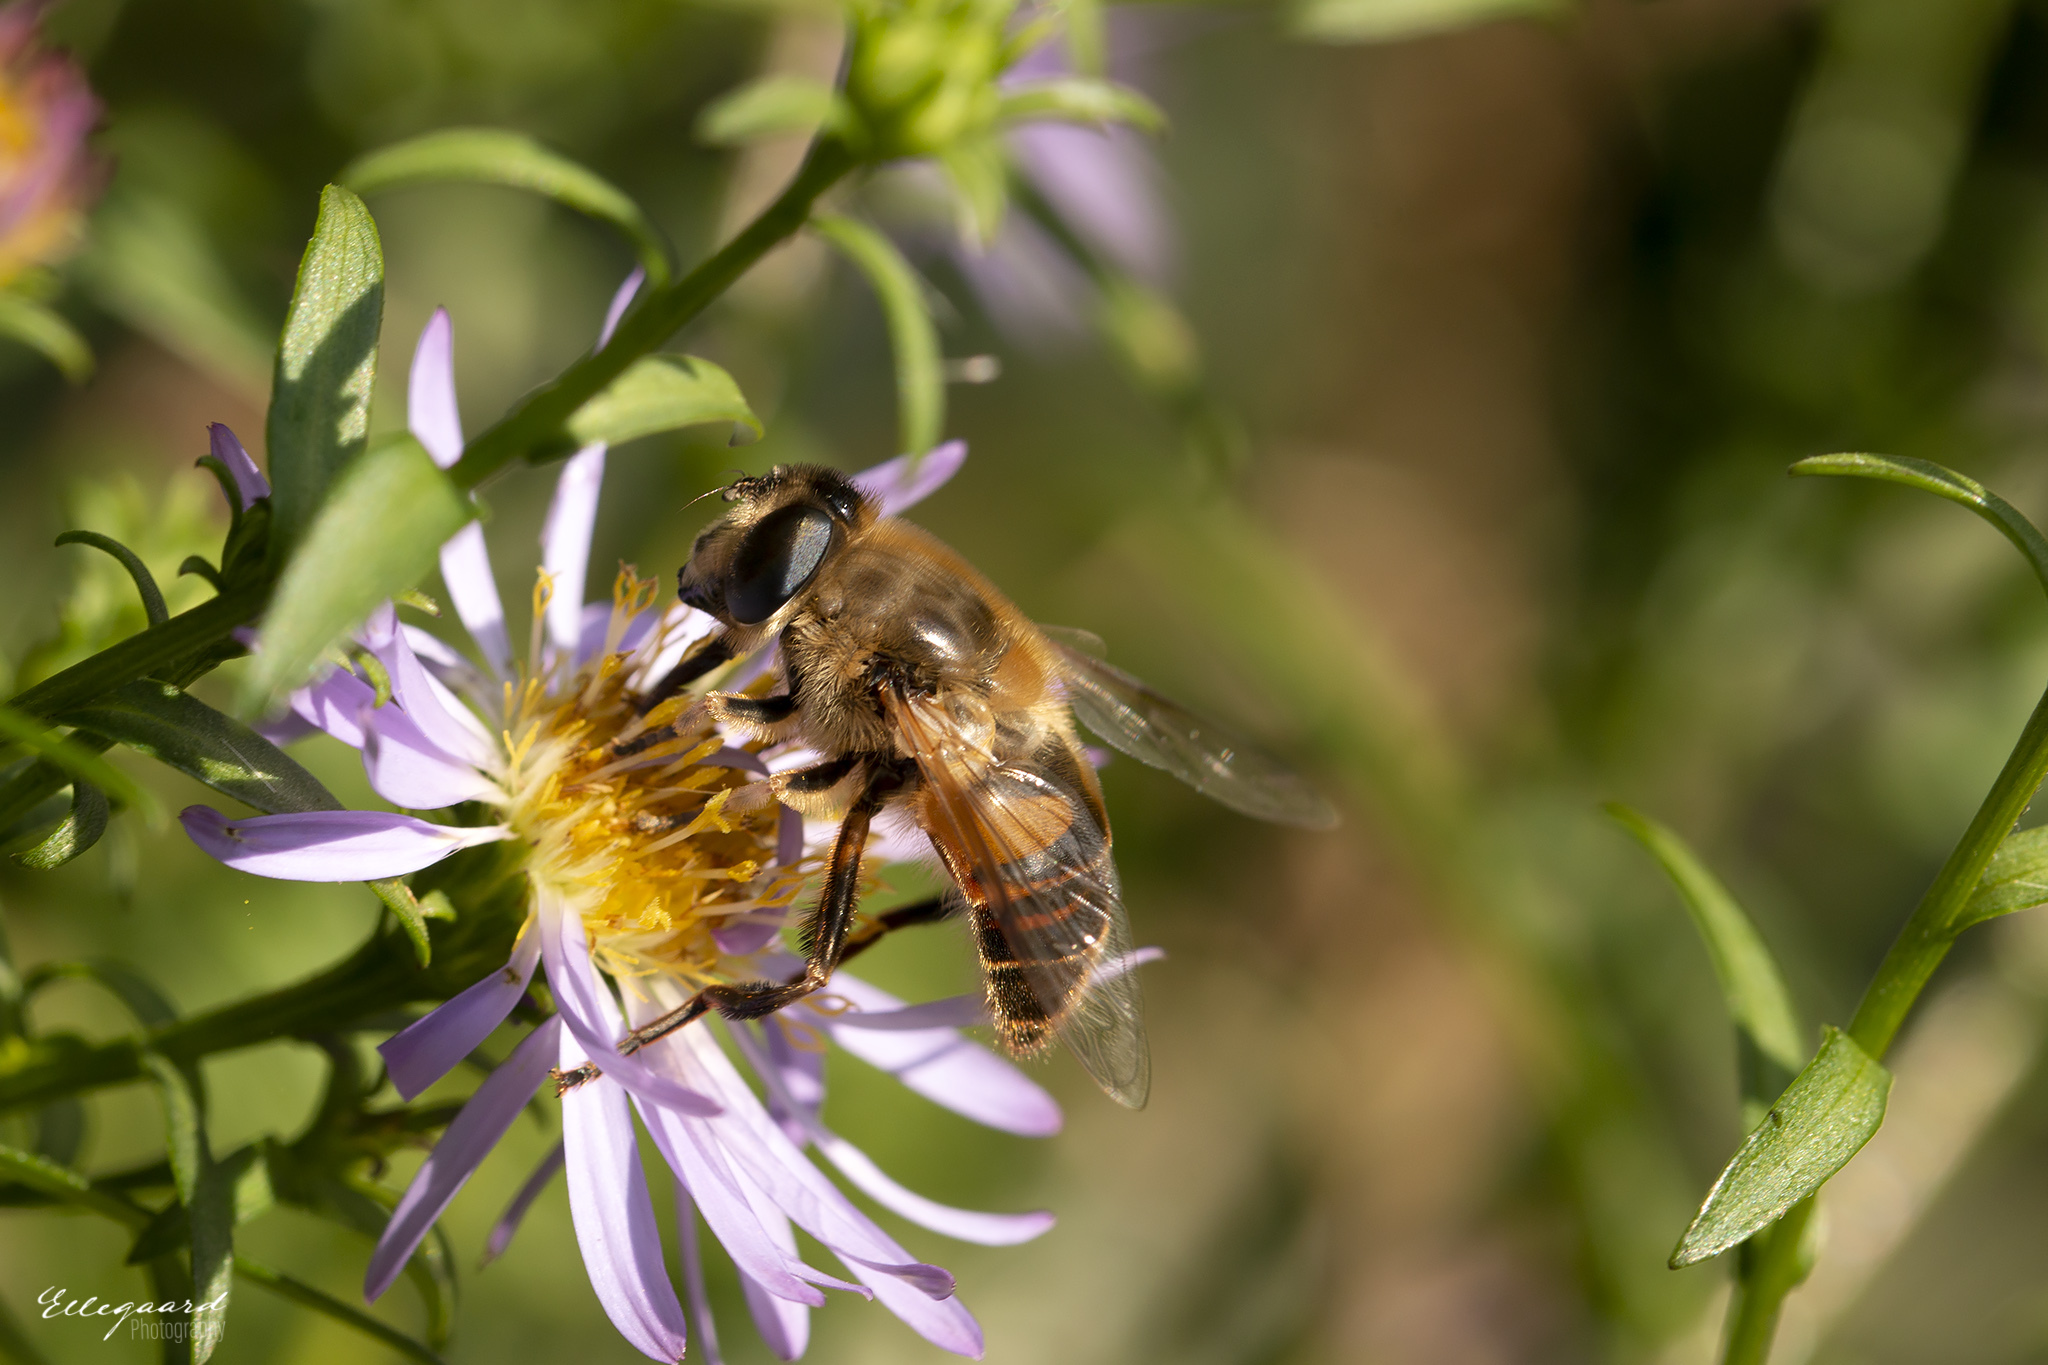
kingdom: Animalia
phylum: Arthropoda
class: Insecta
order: Diptera
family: Syrphidae
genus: Eristalis
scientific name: Eristalis tenax
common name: Drone fly
